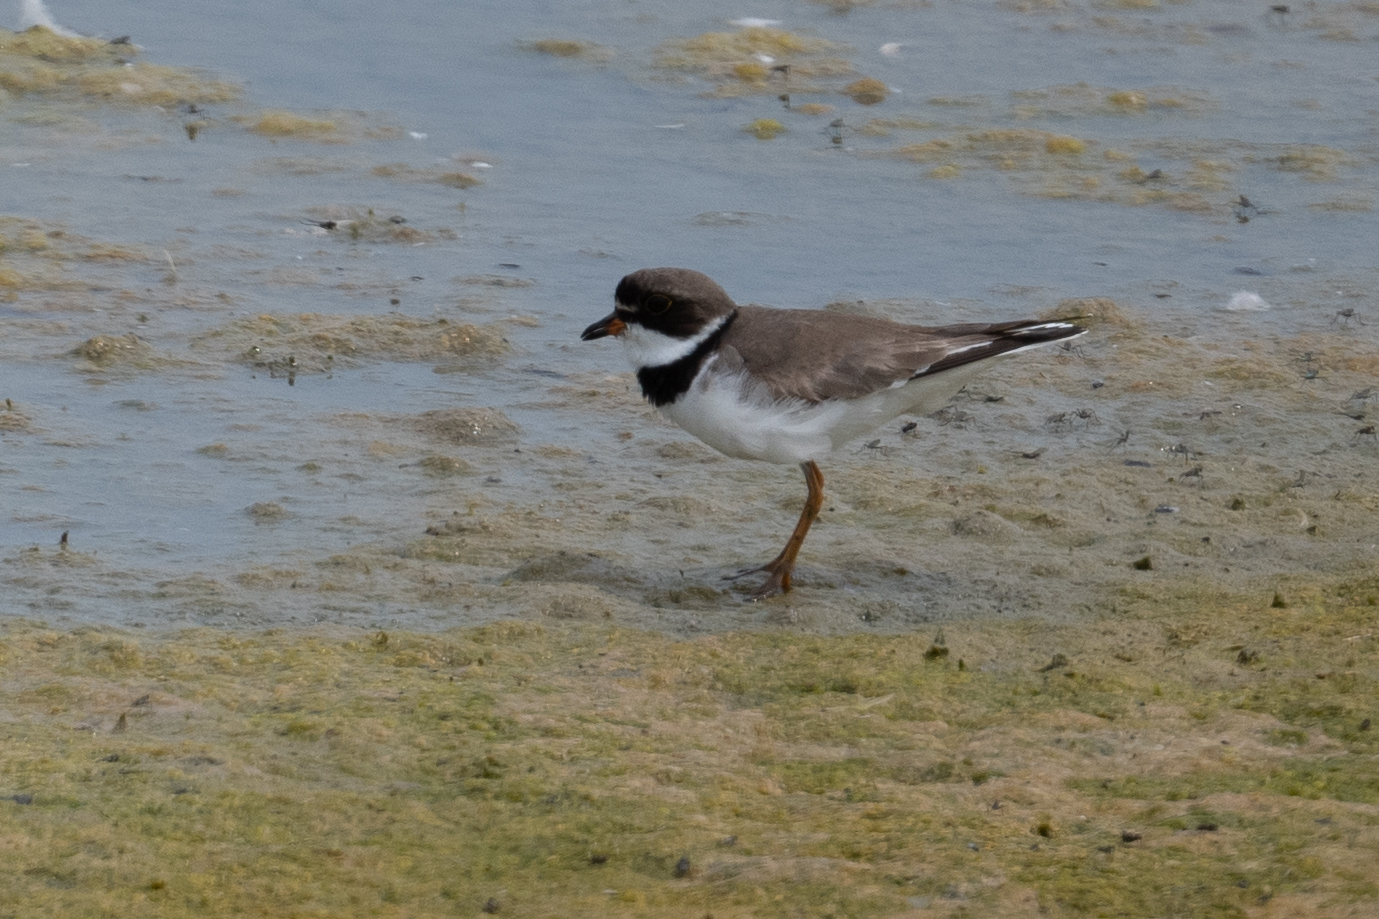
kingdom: Animalia
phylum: Chordata
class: Aves
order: Charadriiformes
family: Charadriidae
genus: Charadrius
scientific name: Charadrius semipalmatus
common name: Semipalmated plover
